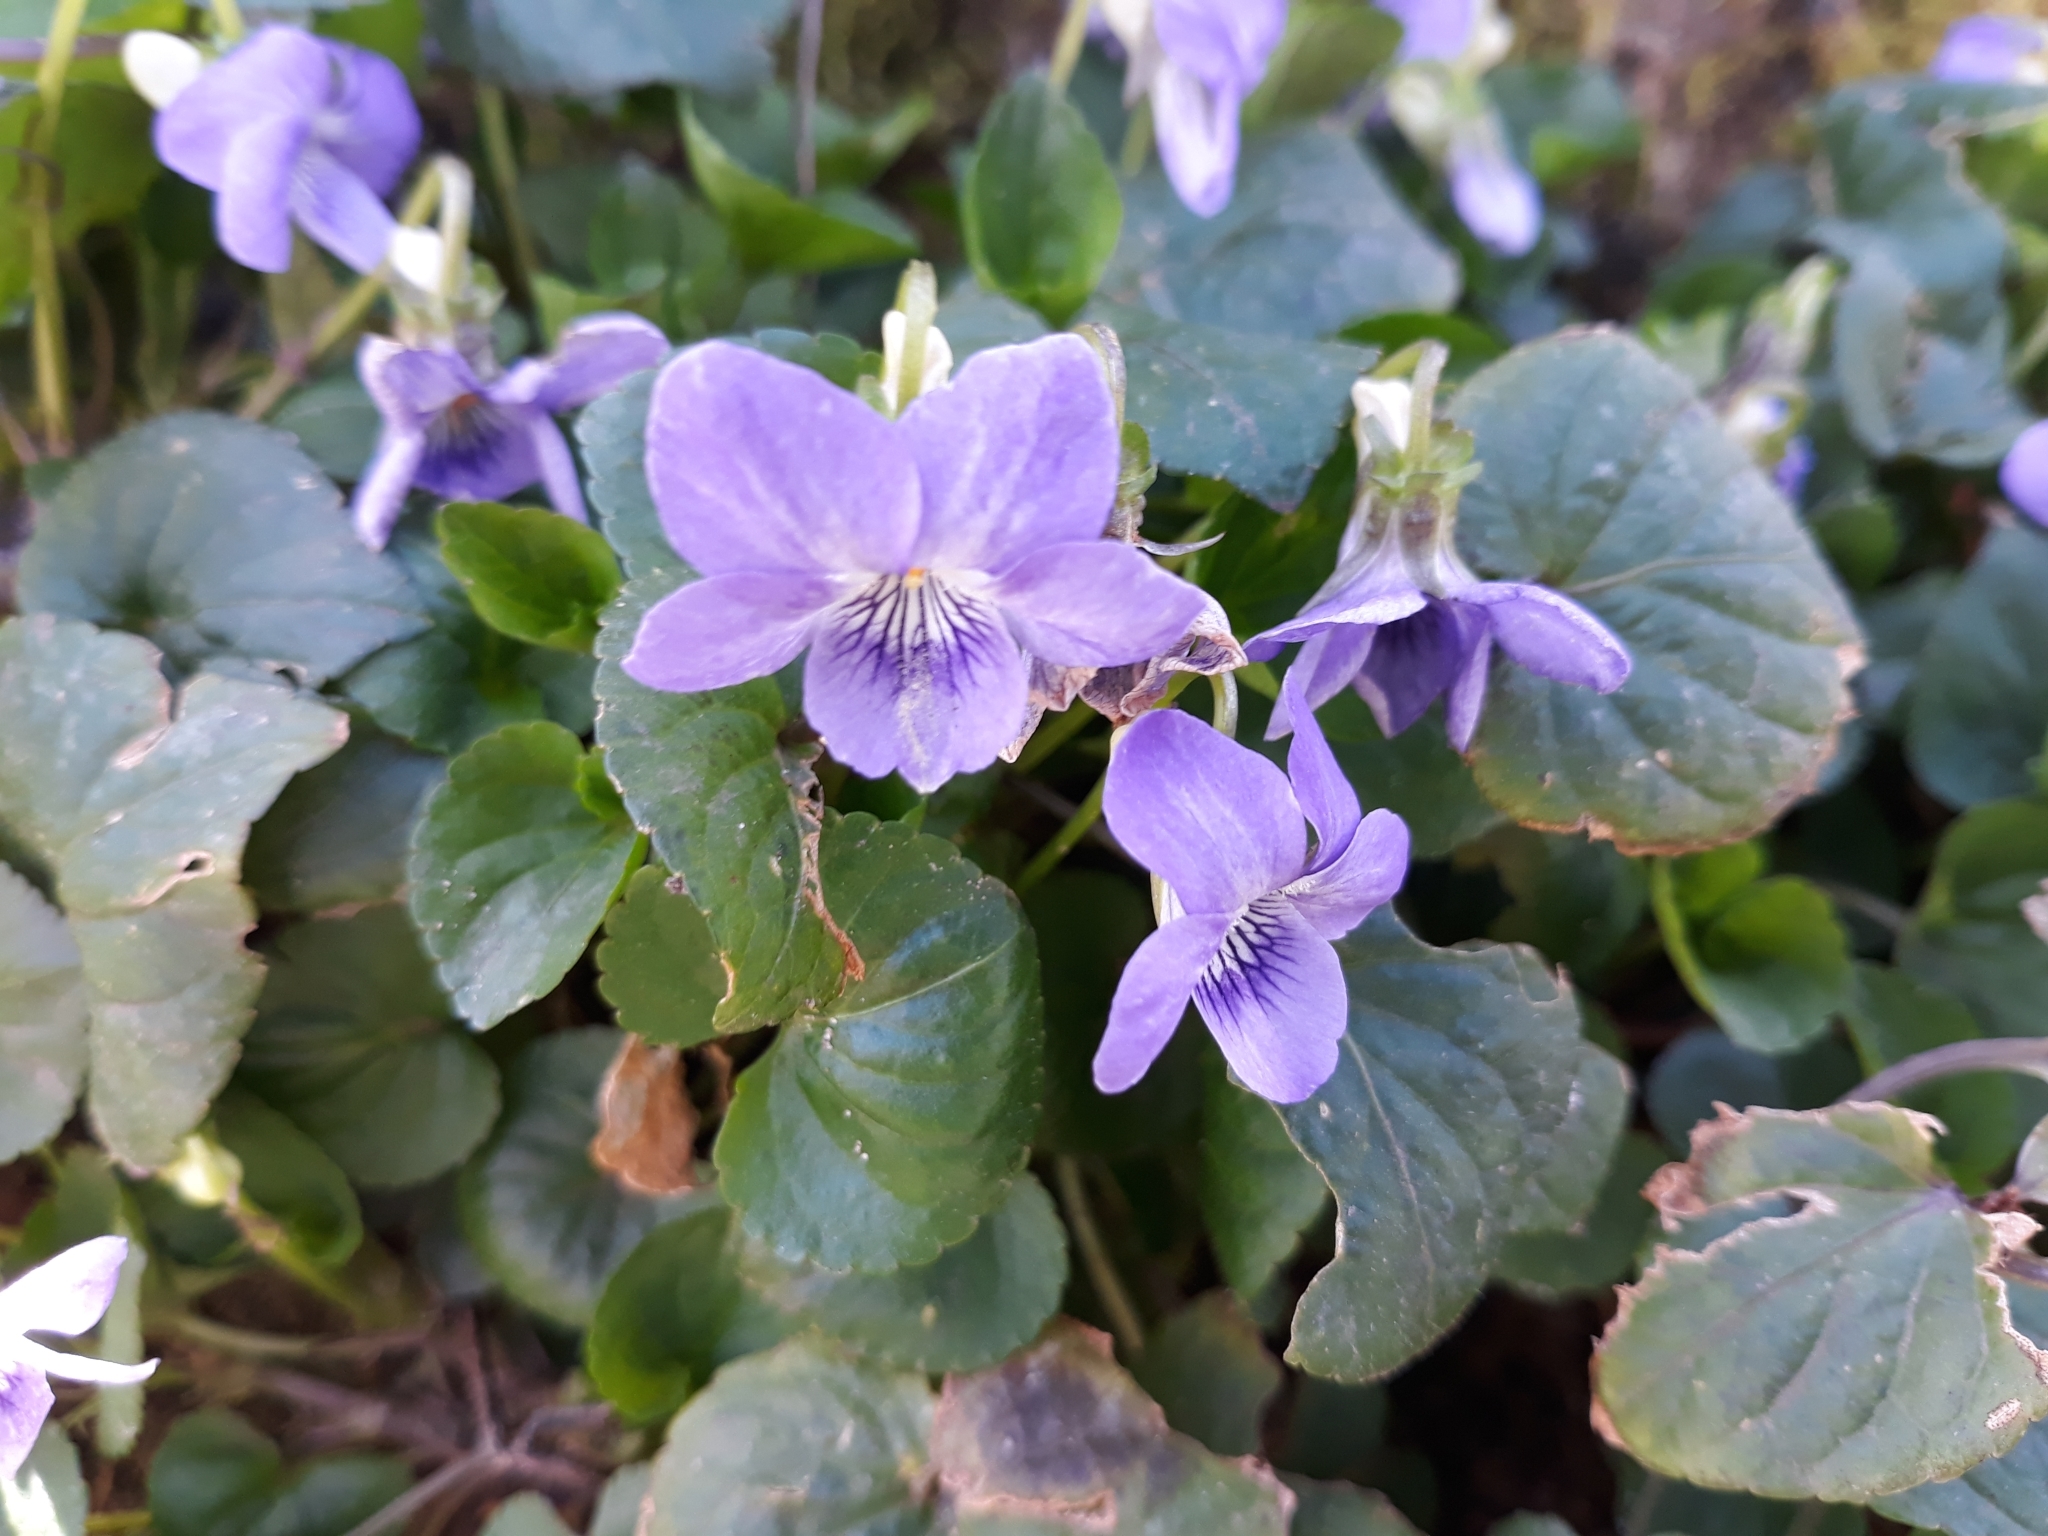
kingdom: Plantae
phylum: Tracheophyta
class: Magnoliopsida
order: Malpighiales
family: Violaceae
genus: Viola
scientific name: Viola riviniana
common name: Common dog-violet
